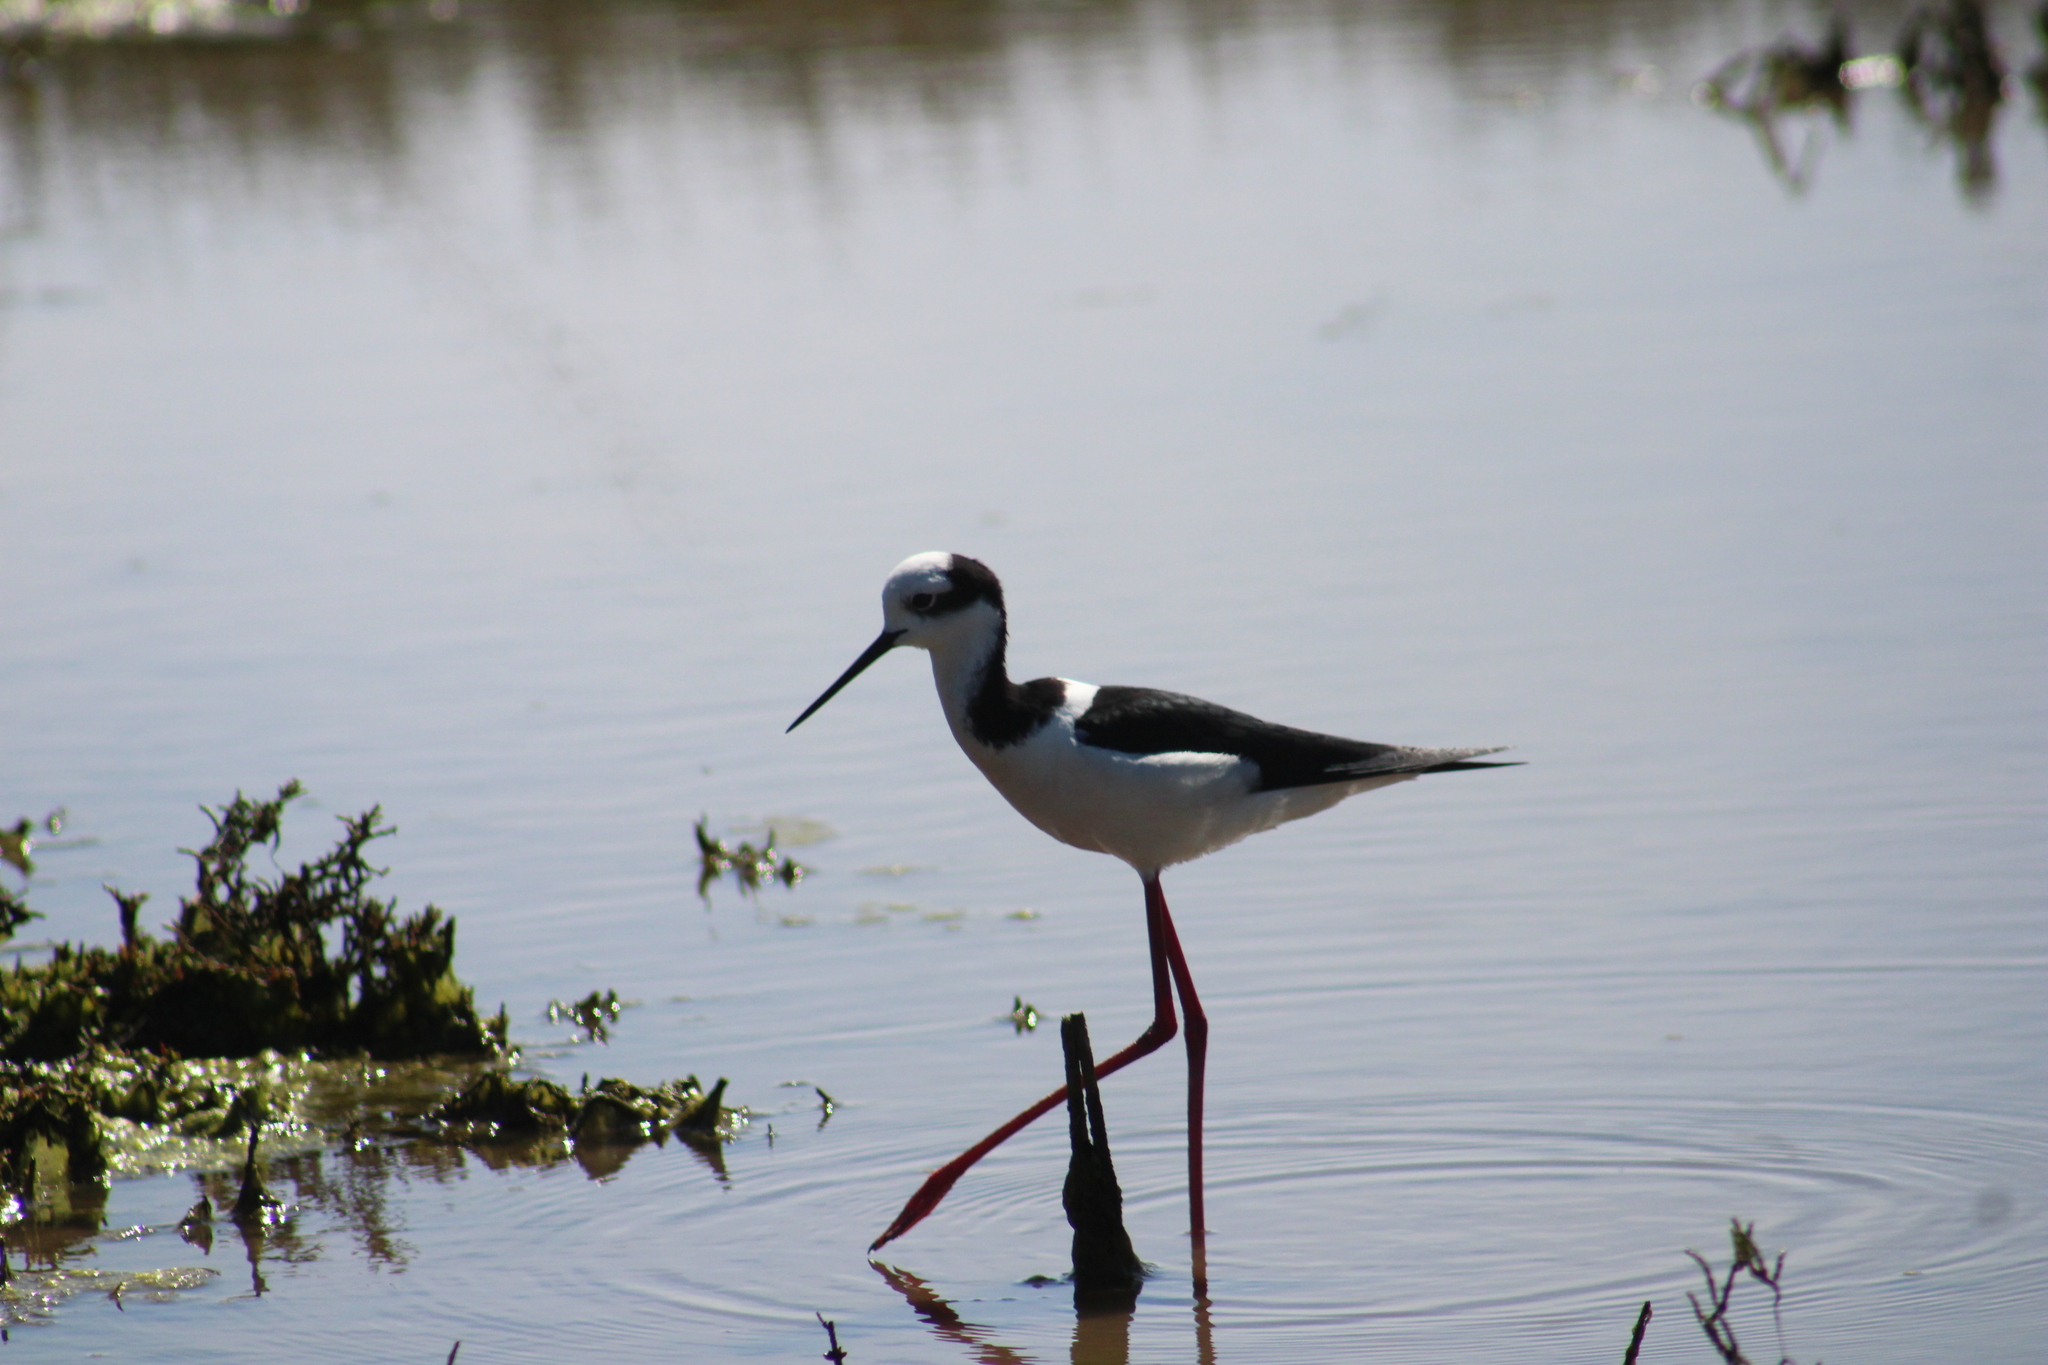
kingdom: Animalia
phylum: Chordata
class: Aves
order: Charadriiformes
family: Recurvirostridae
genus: Himantopus
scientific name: Himantopus mexicanus
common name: Black-necked stilt
